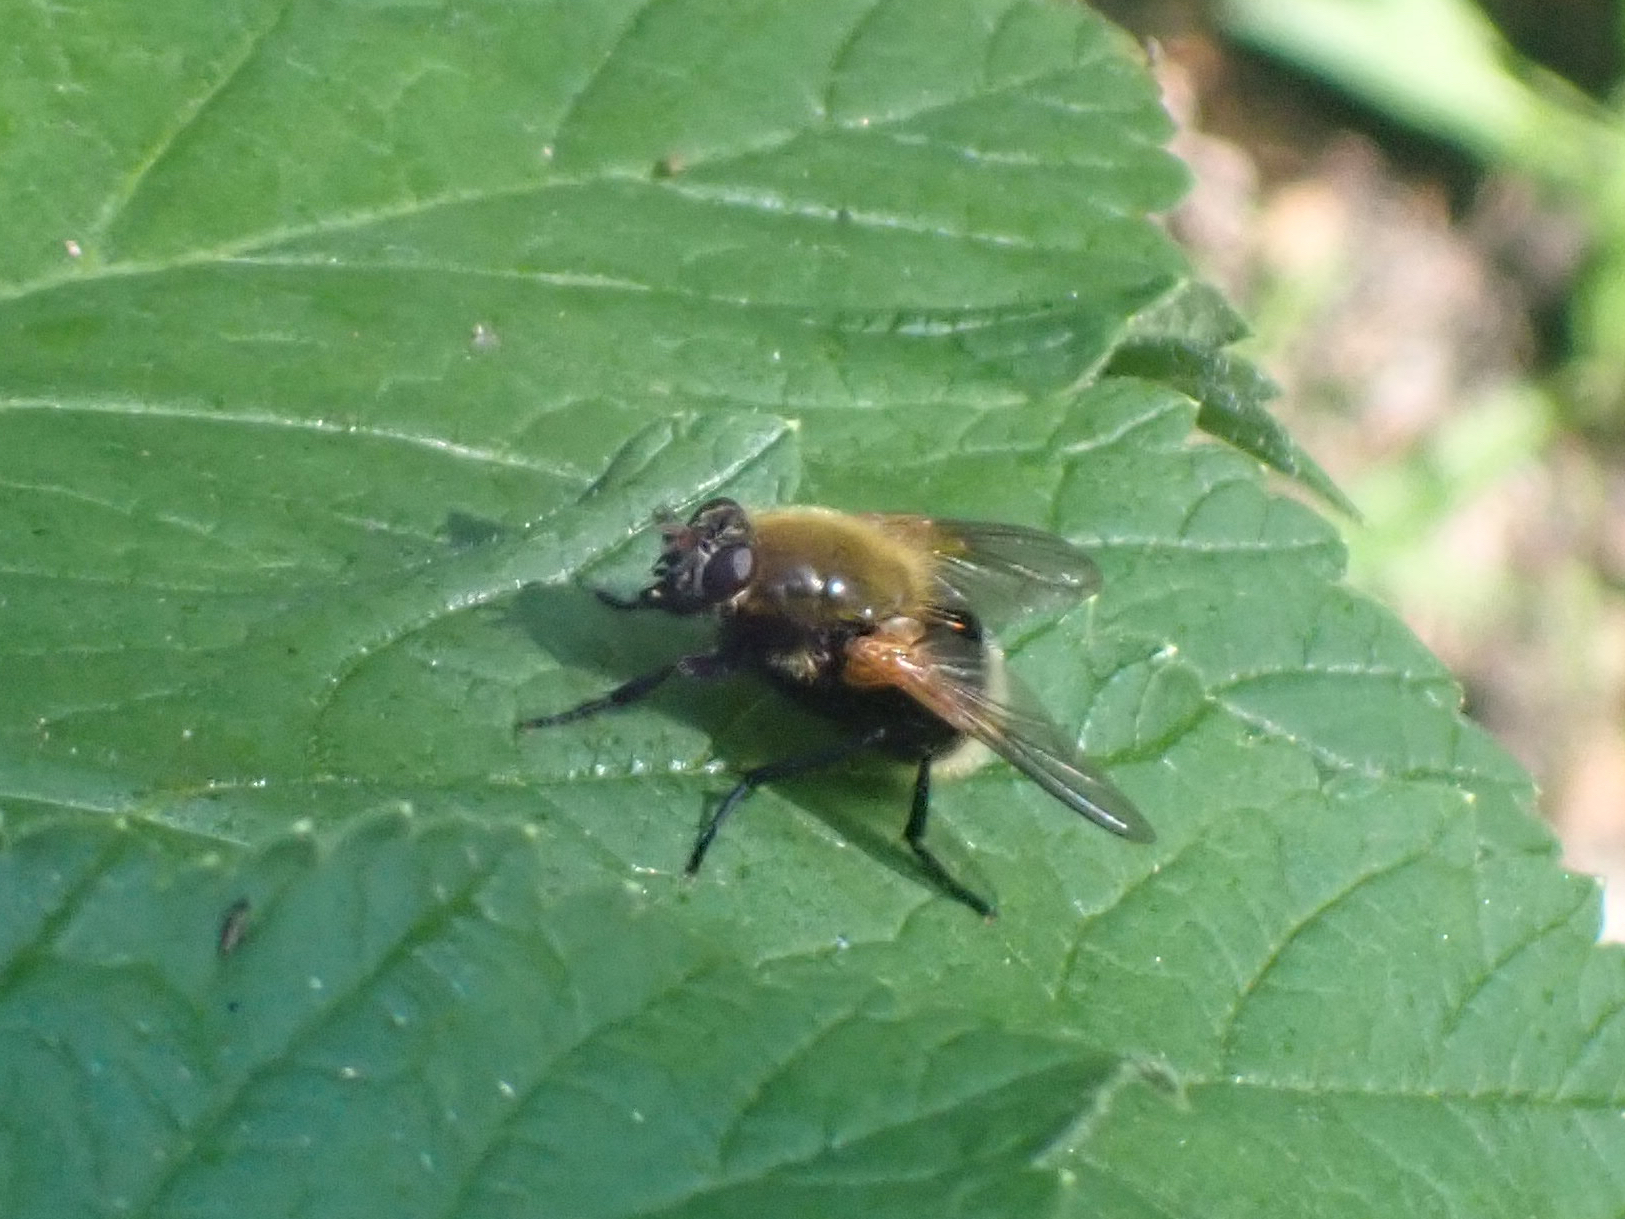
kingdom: Animalia
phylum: Arthropoda
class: Insecta
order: Diptera
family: Muscidae
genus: Mesembrina
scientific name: Mesembrina decipiens
